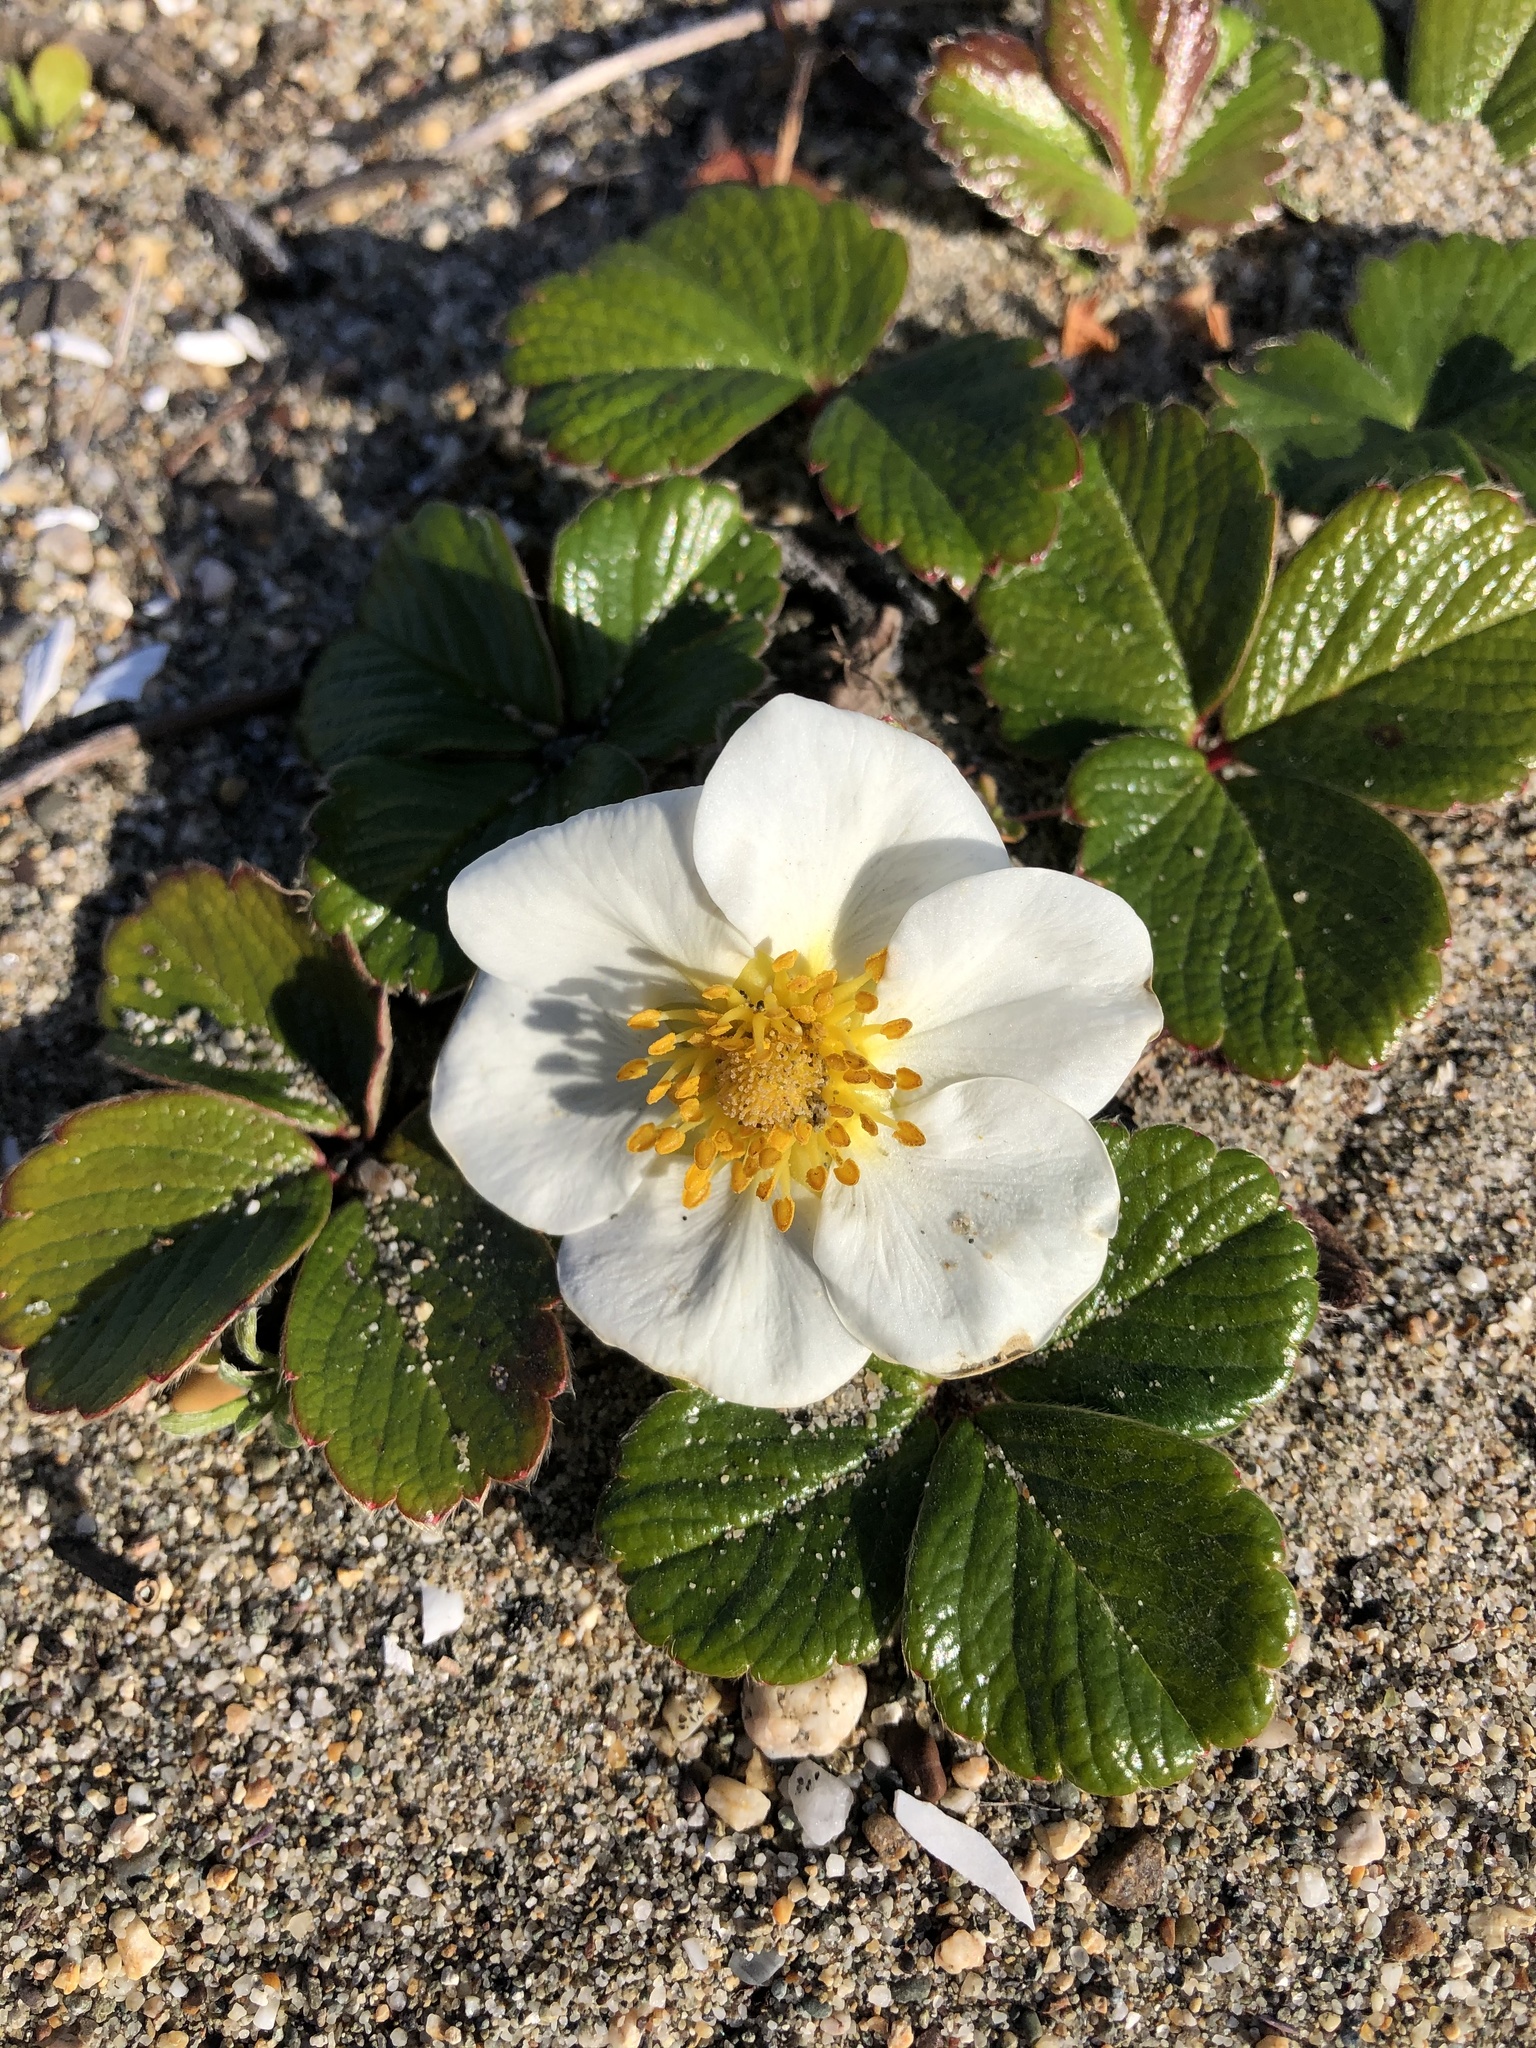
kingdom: Plantae
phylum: Tracheophyta
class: Magnoliopsida
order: Rosales
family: Rosaceae
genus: Fragaria
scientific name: Fragaria chiloensis
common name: Beach strawberry
